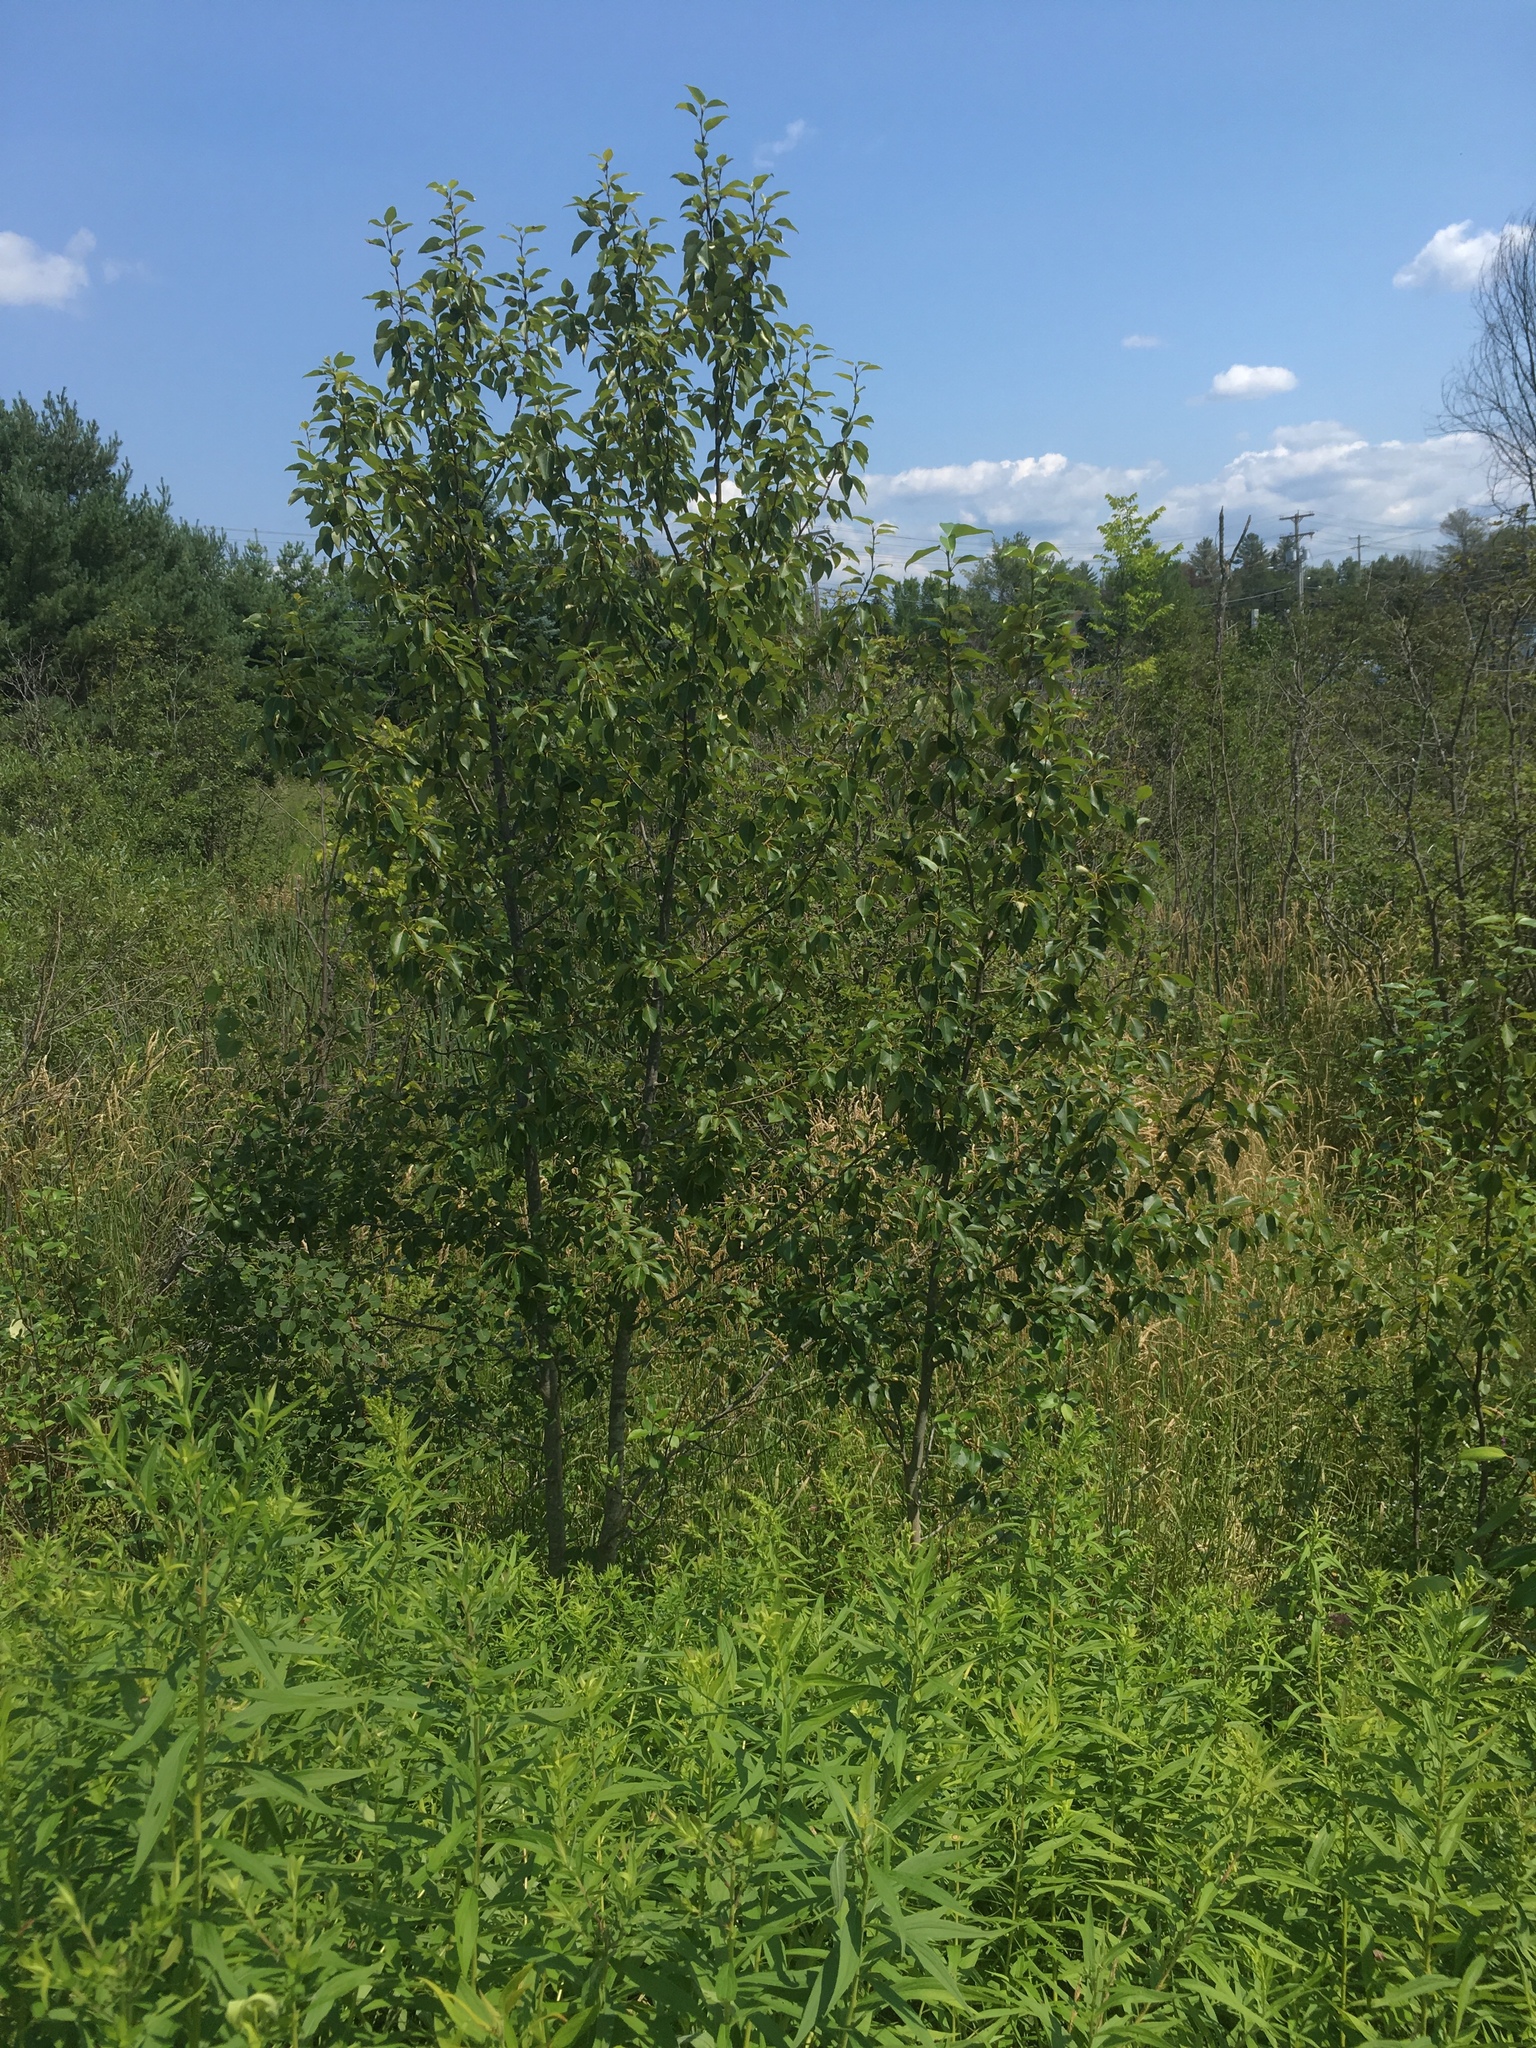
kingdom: Plantae
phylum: Tracheophyta
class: Magnoliopsida
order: Malpighiales
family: Salicaceae
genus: Populus
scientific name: Populus balsamifera
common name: Balsam poplar
